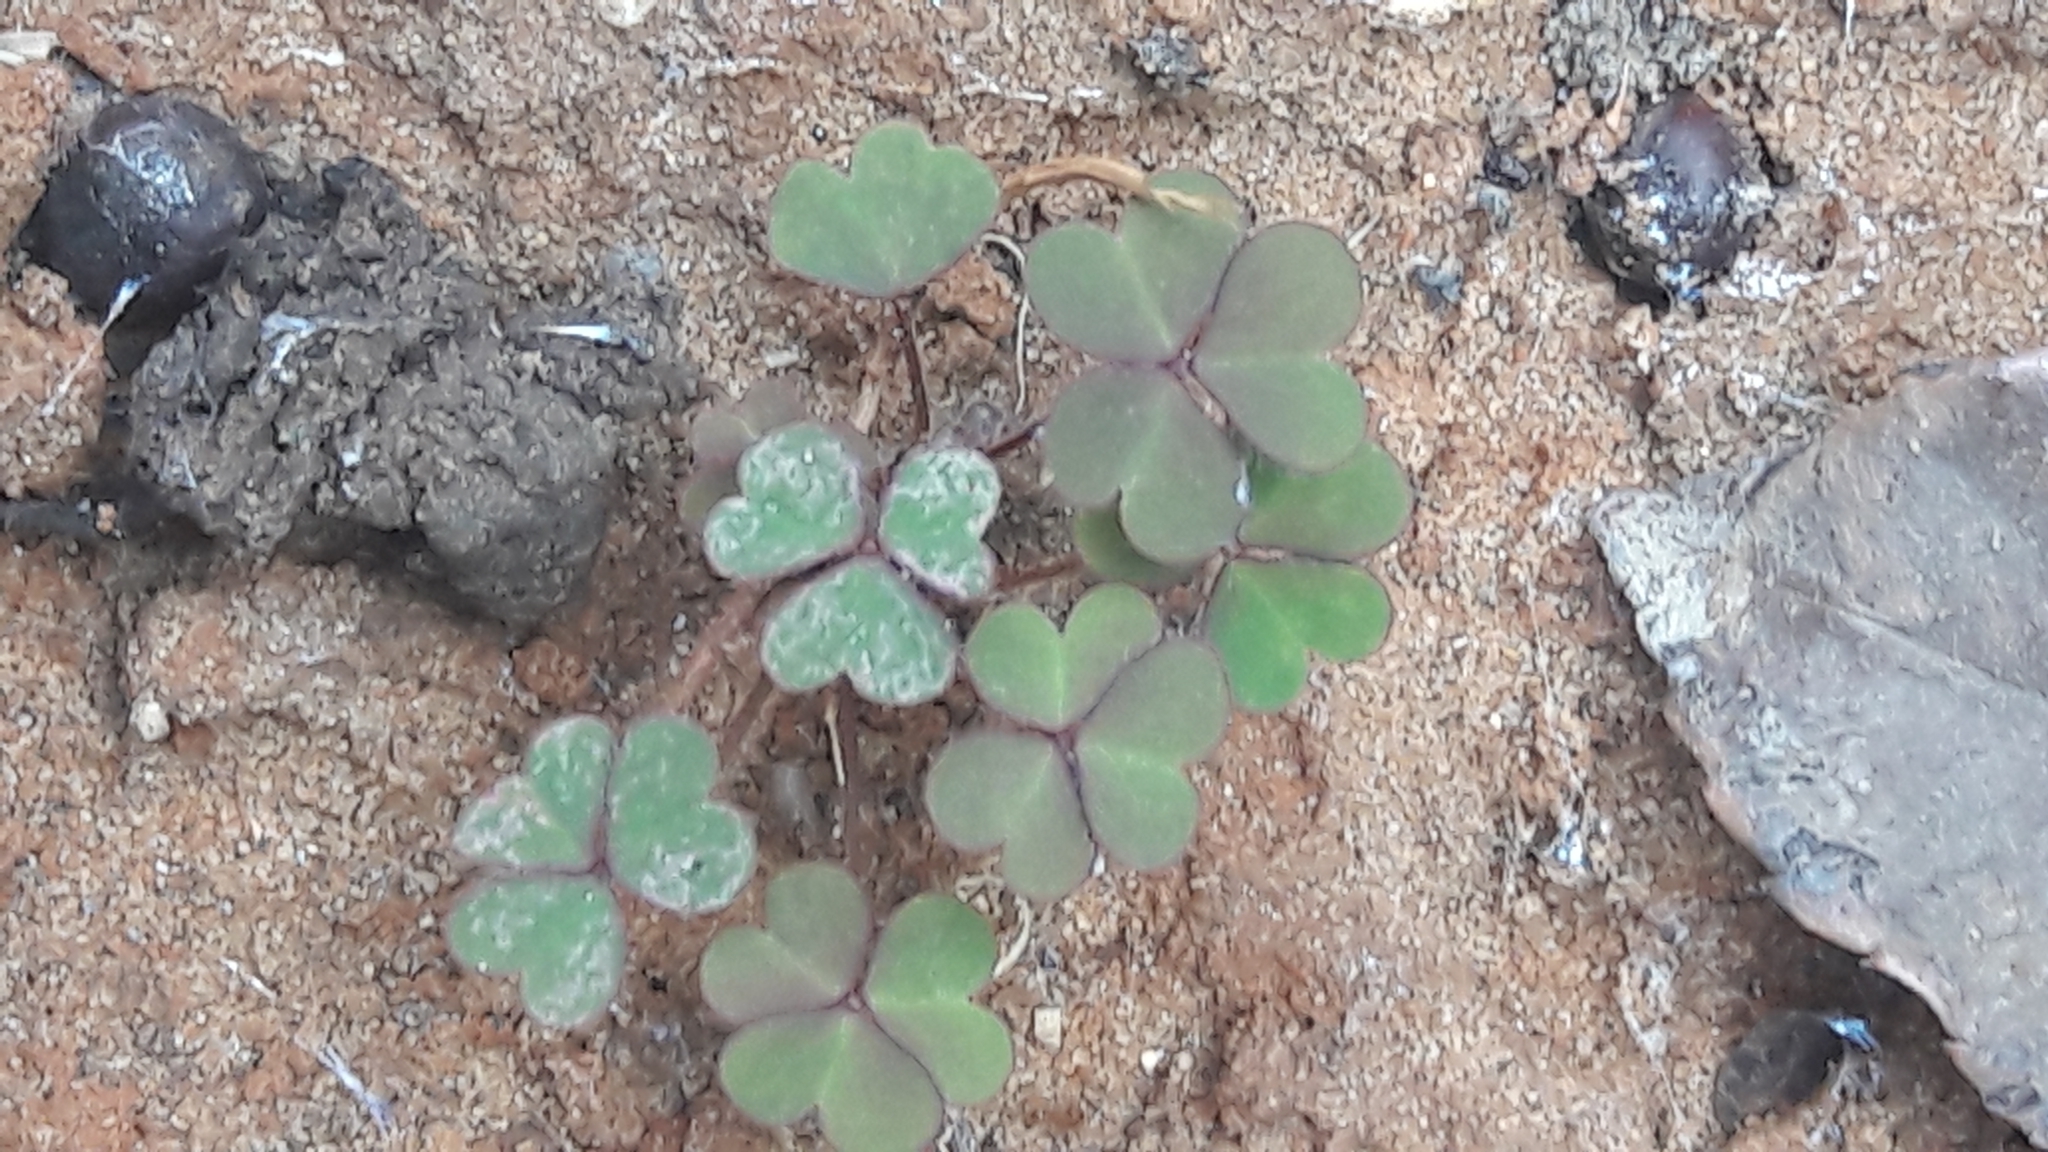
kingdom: Plantae
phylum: Tracheophyta
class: Magnoliopsida
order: Oxalidales
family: Oxalidaceae
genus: Oxalis
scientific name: Oxalis corniculata
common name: Procumbent yellow-sorrel
